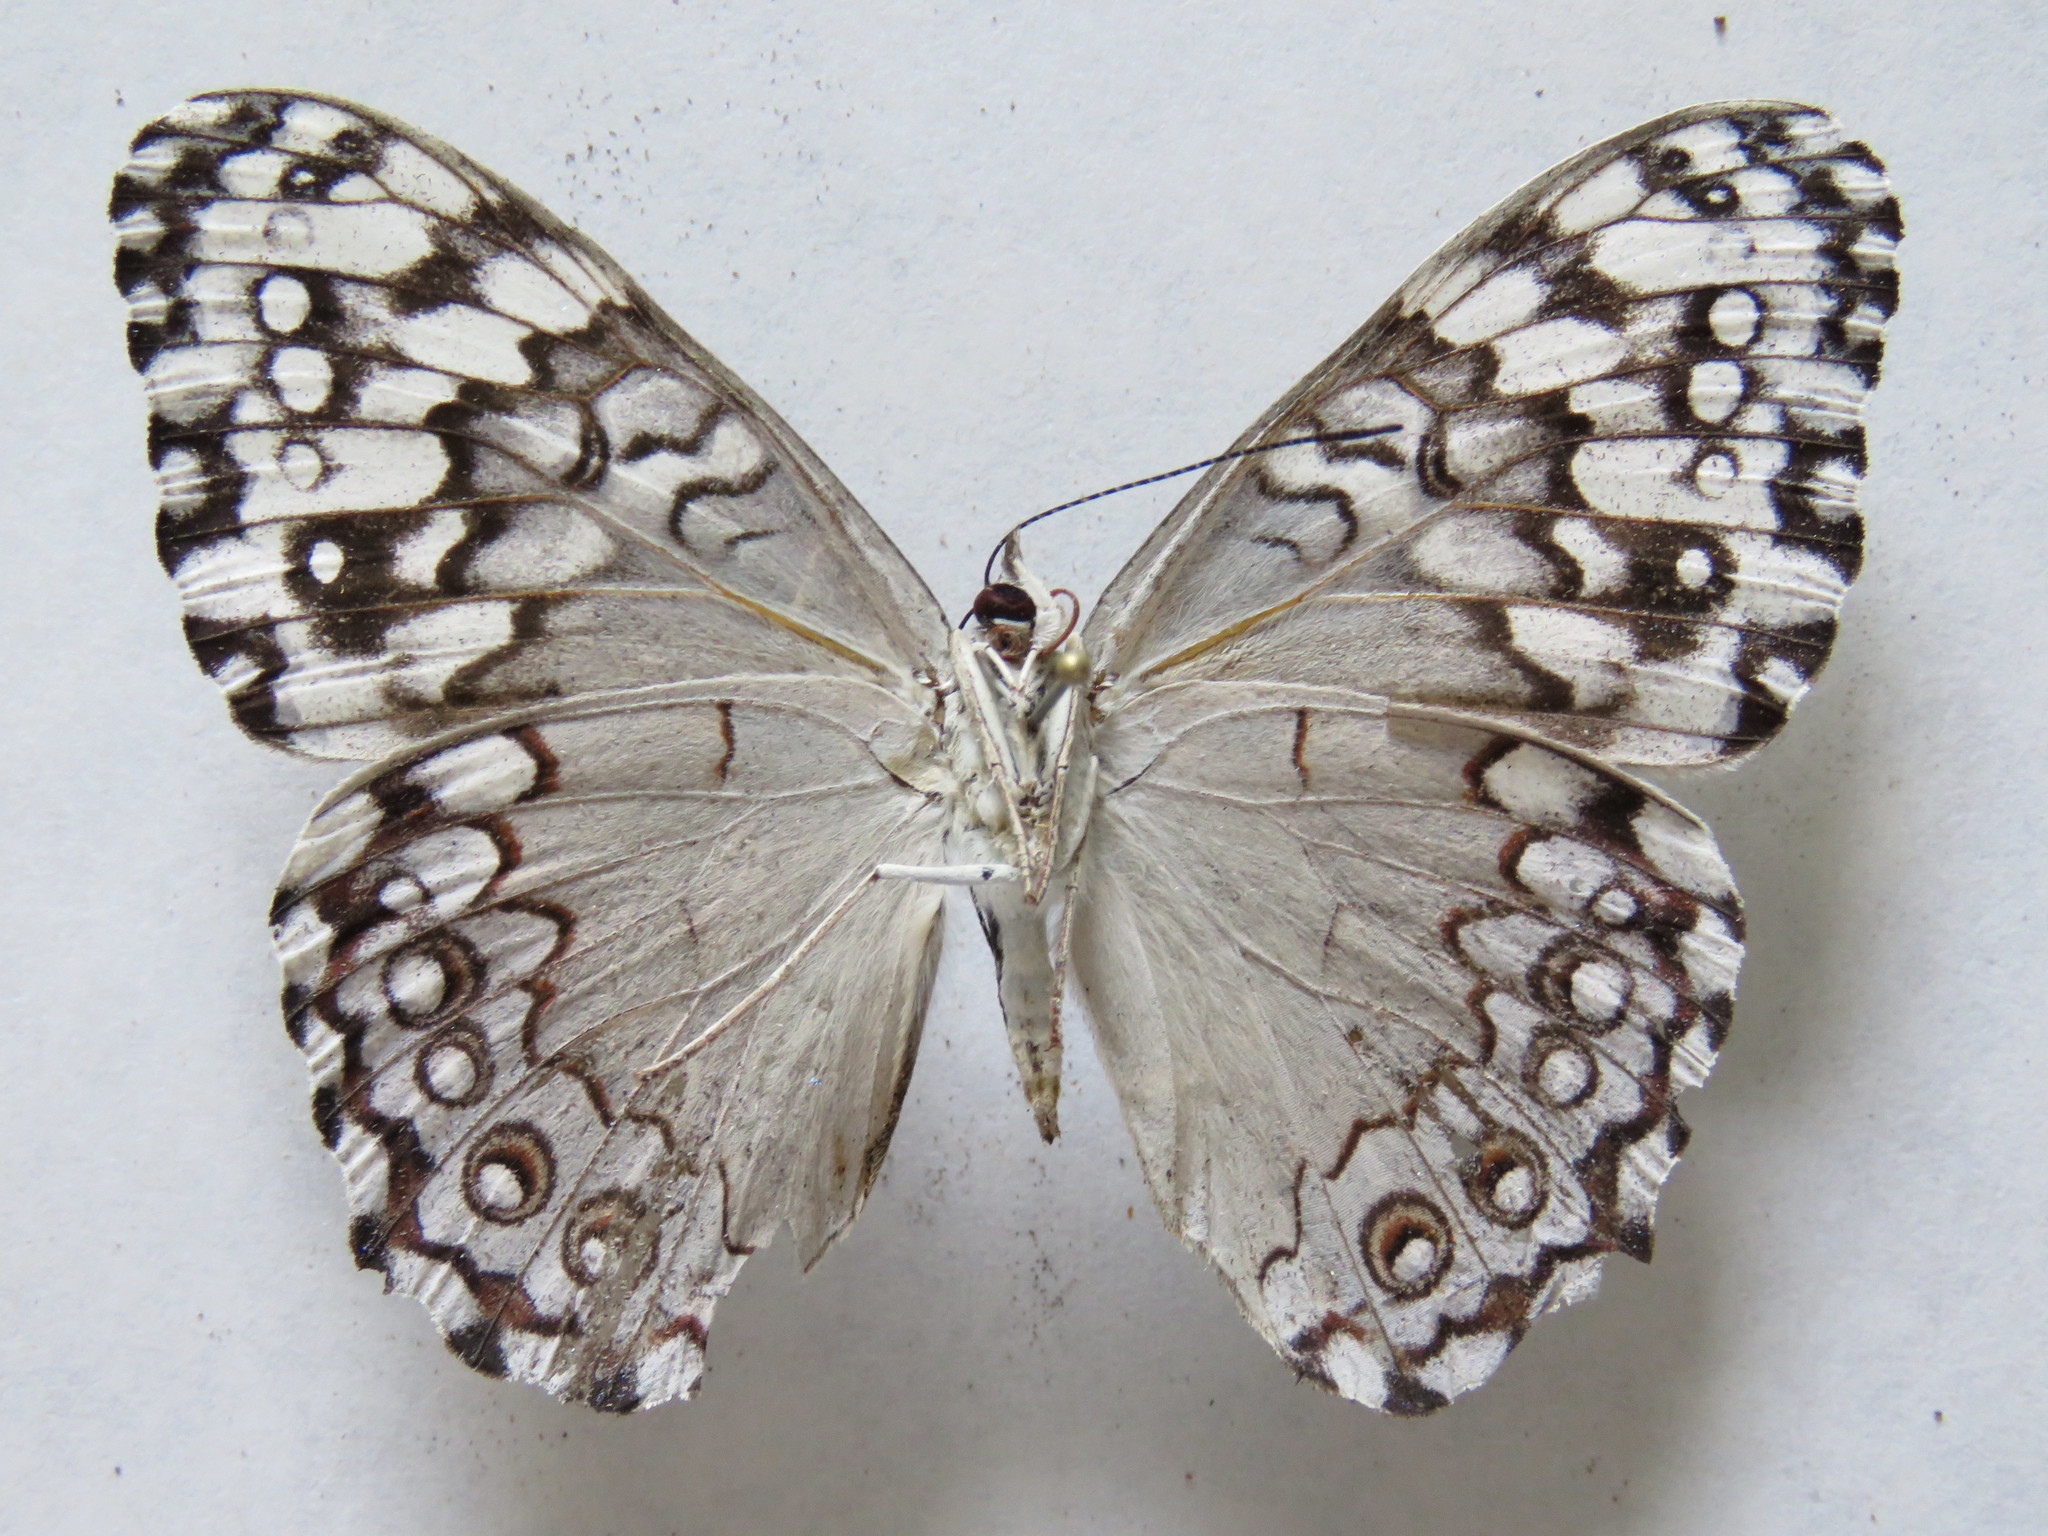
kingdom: Animalia
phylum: Arthropoda
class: Insecta
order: Lepidoptera
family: Nymphalidae
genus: Hamadryas
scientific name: Hamadryas glauconome
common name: Glaucous cracker
